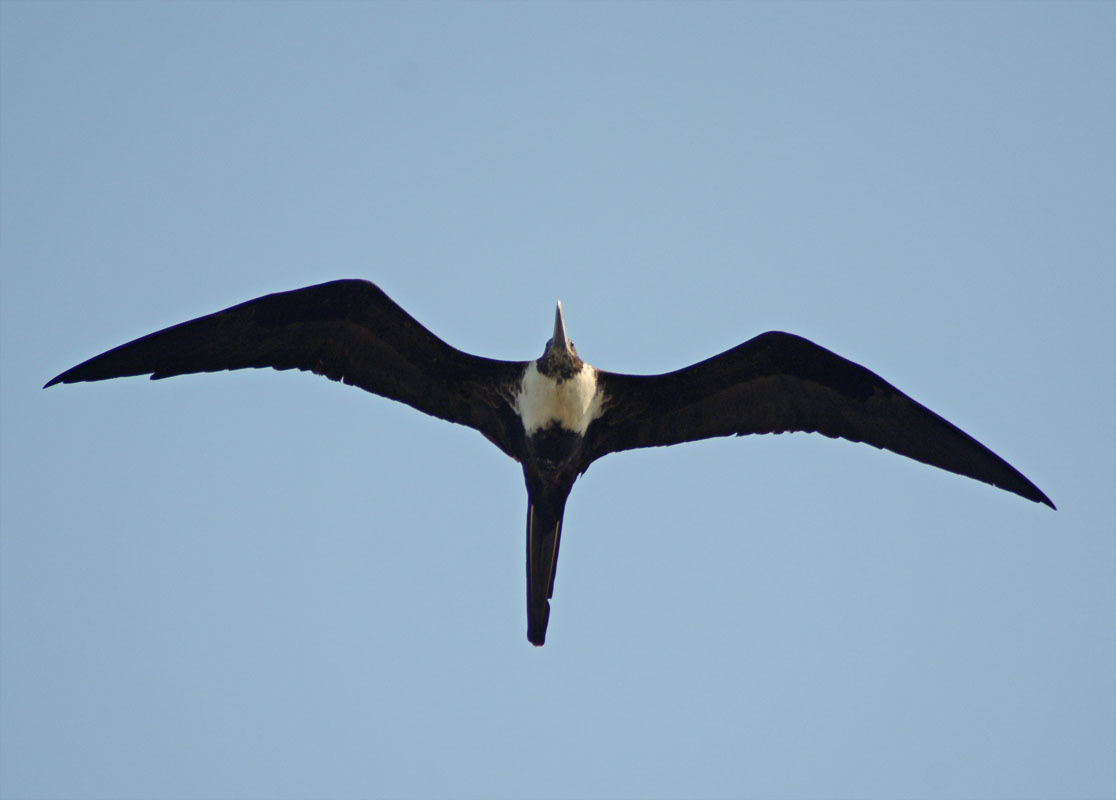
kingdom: Animalia
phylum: Chordata
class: Aves
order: Suliformes
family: Fregatidae
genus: Fregata
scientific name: Fregata magnificens
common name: Magnificent frigatebird
